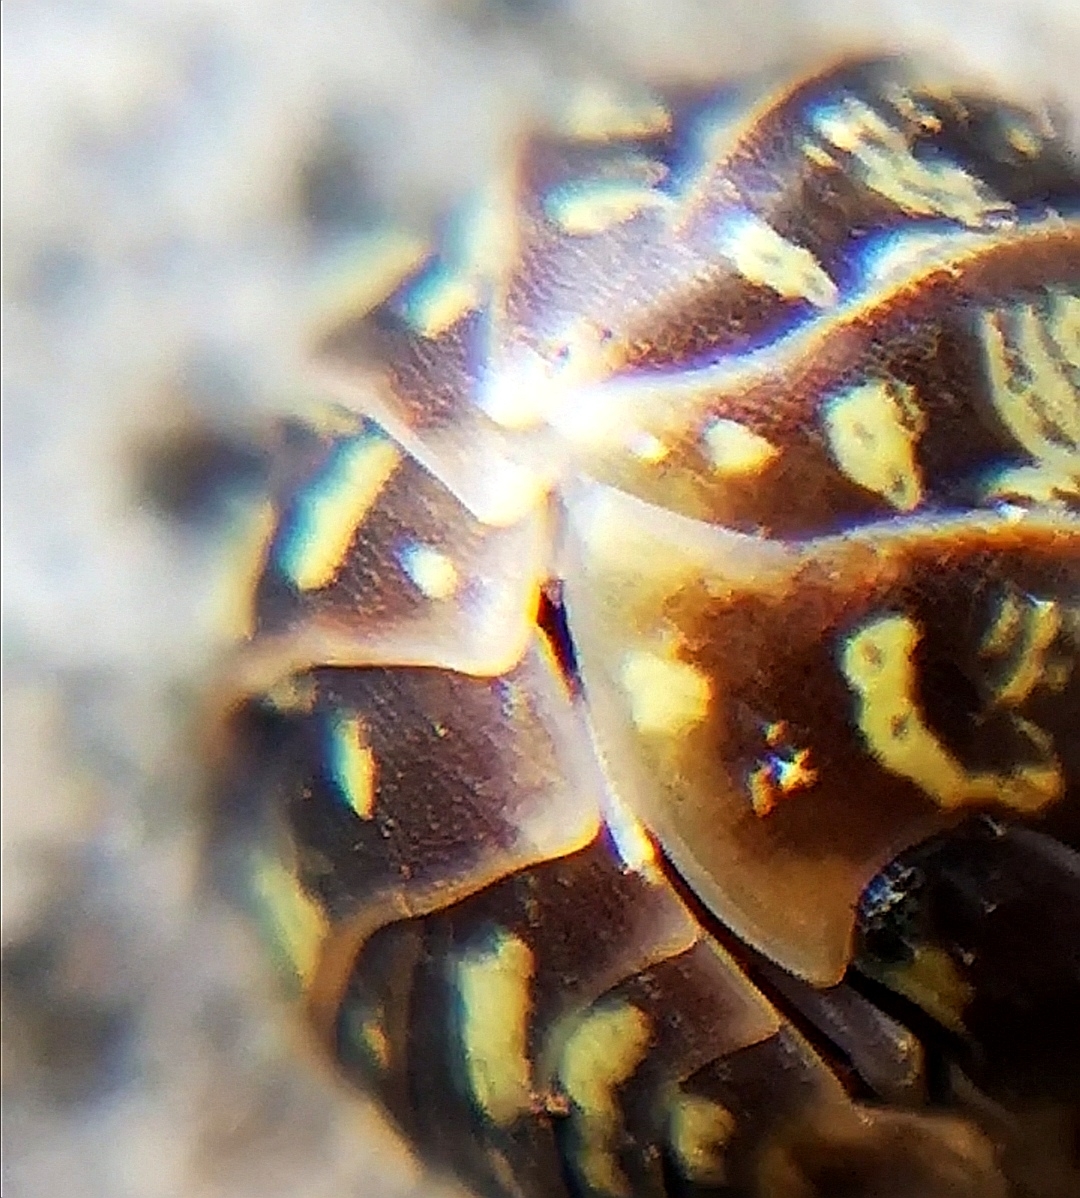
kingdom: Animalia
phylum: Arthropoda
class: Malacostraca
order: Isopoda
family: Armadillidiidae
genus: Armadillidium
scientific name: Armadillidium versicolor
